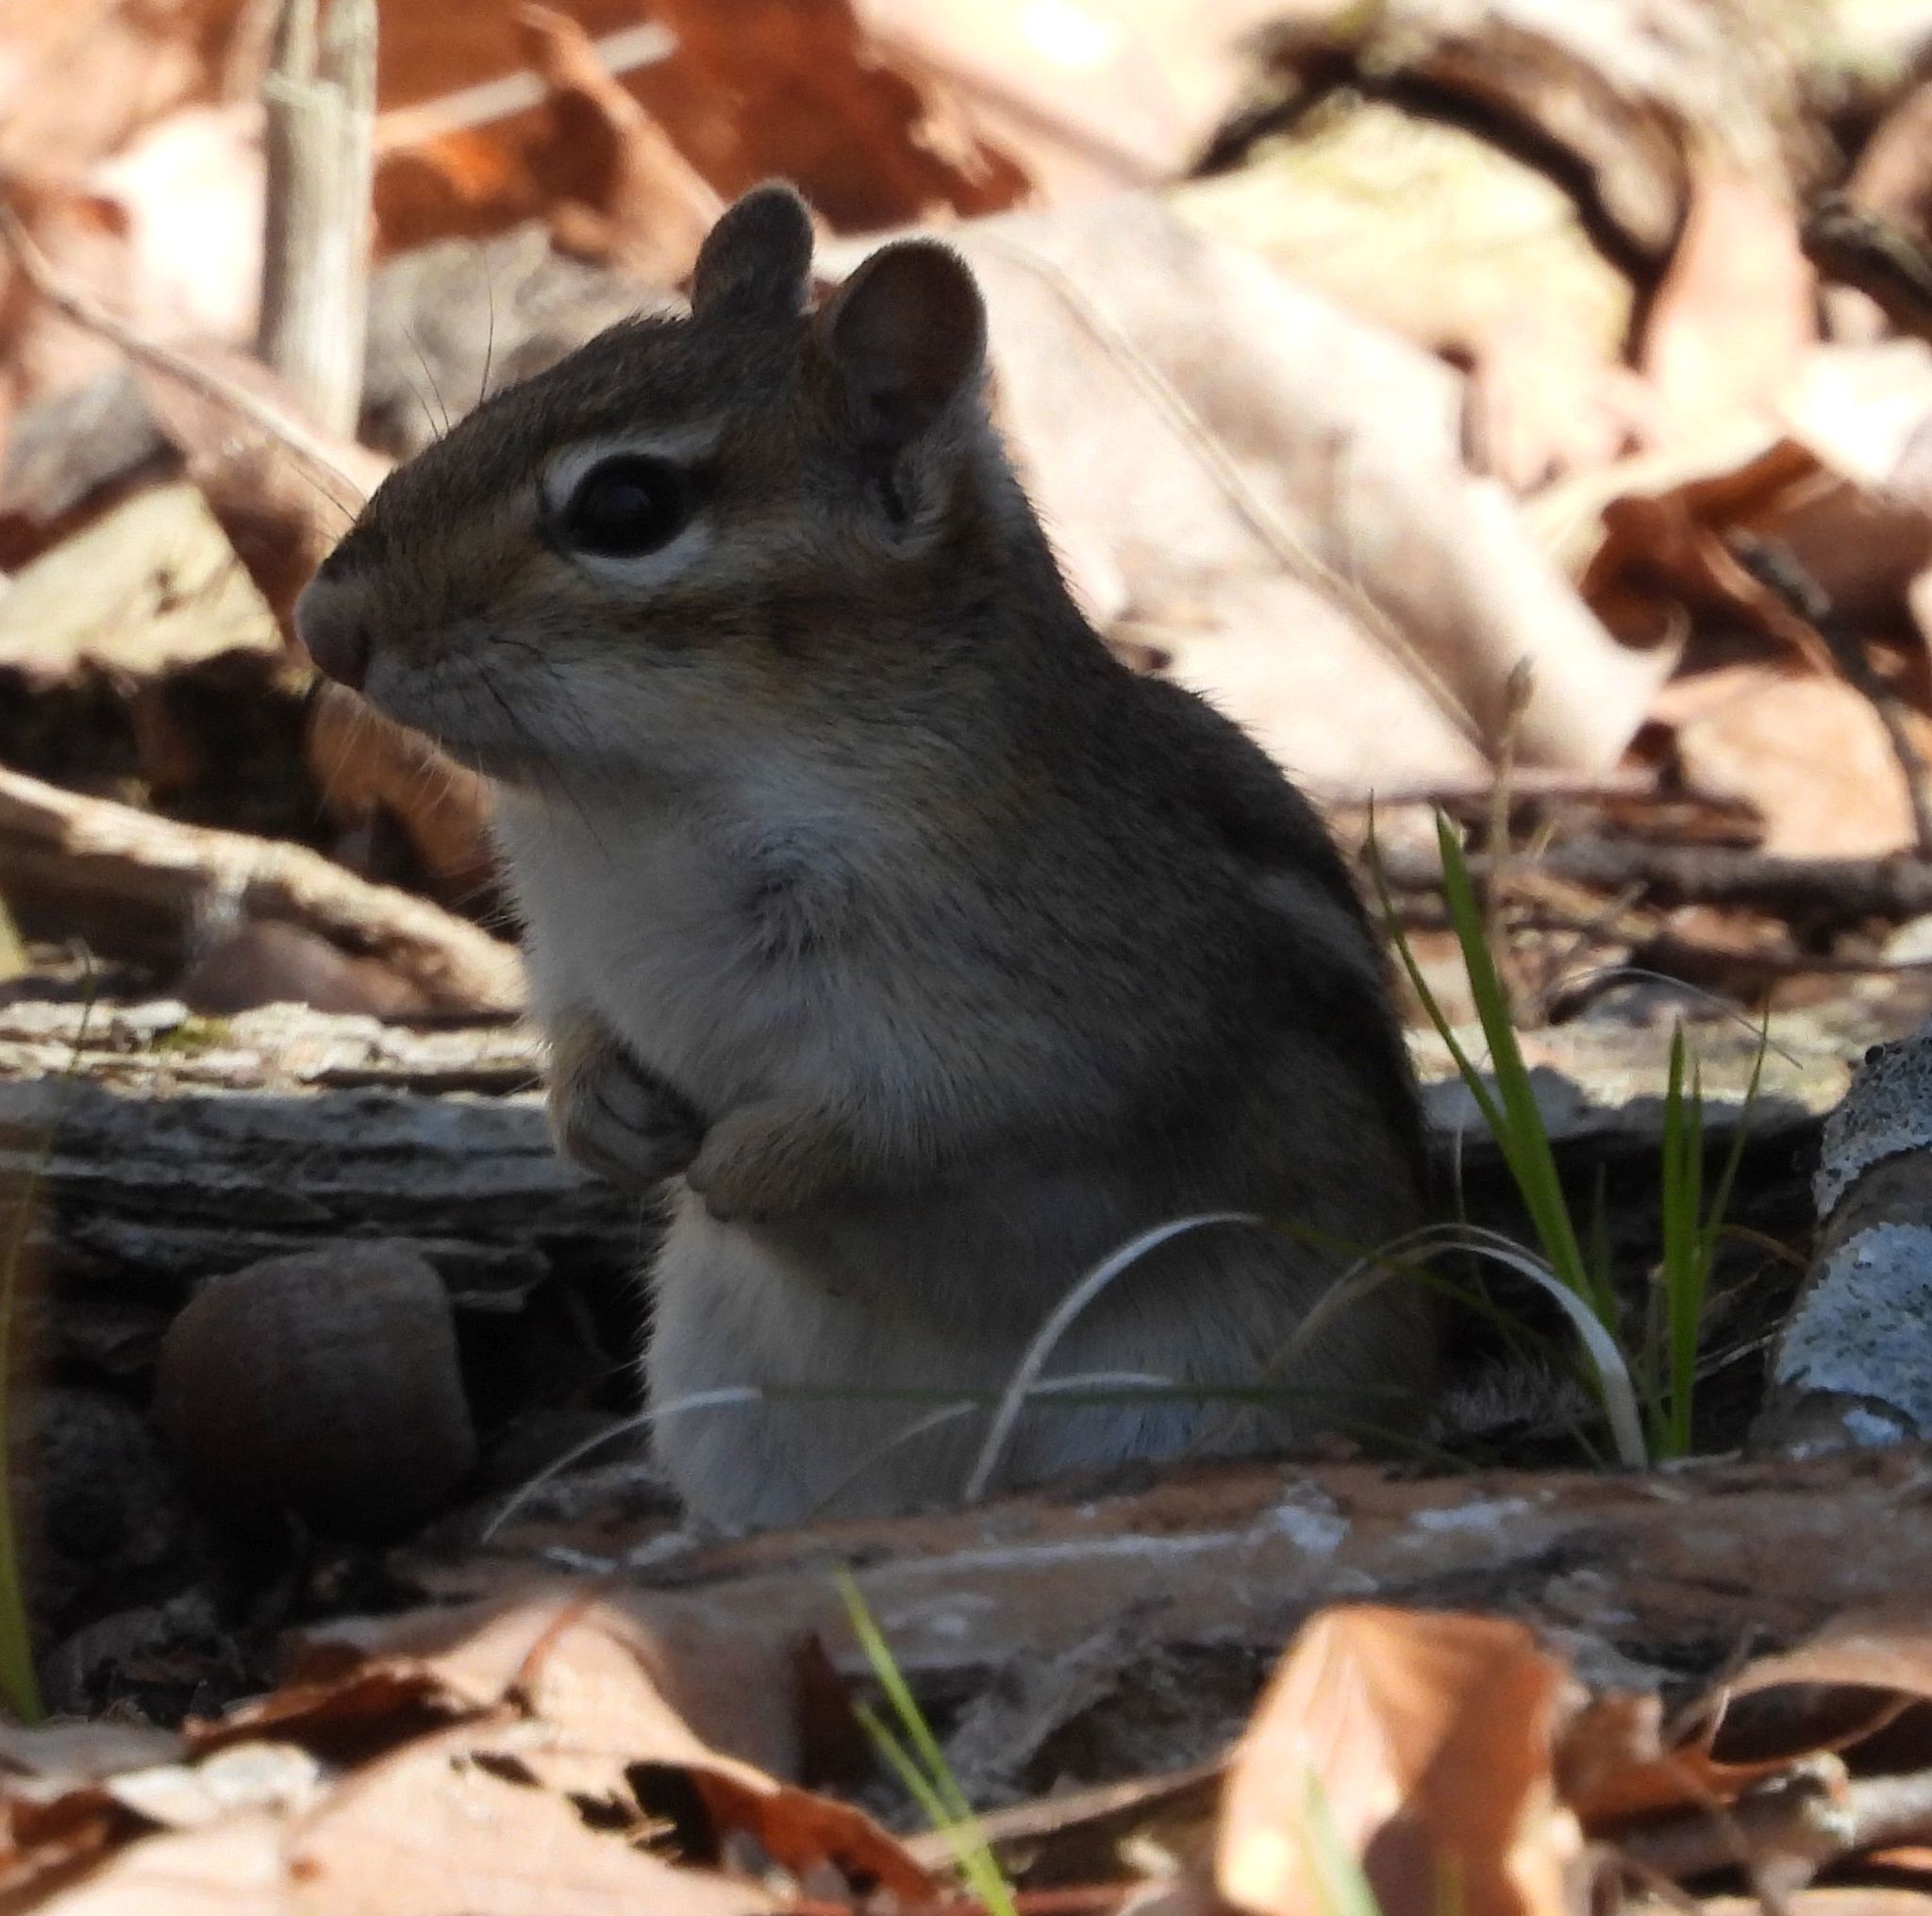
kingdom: Animalia
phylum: Chordata
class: Mammalia
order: Rodentia
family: Sciuridae
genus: Tamias
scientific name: Tamias striatus
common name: Eastern chipmunk
